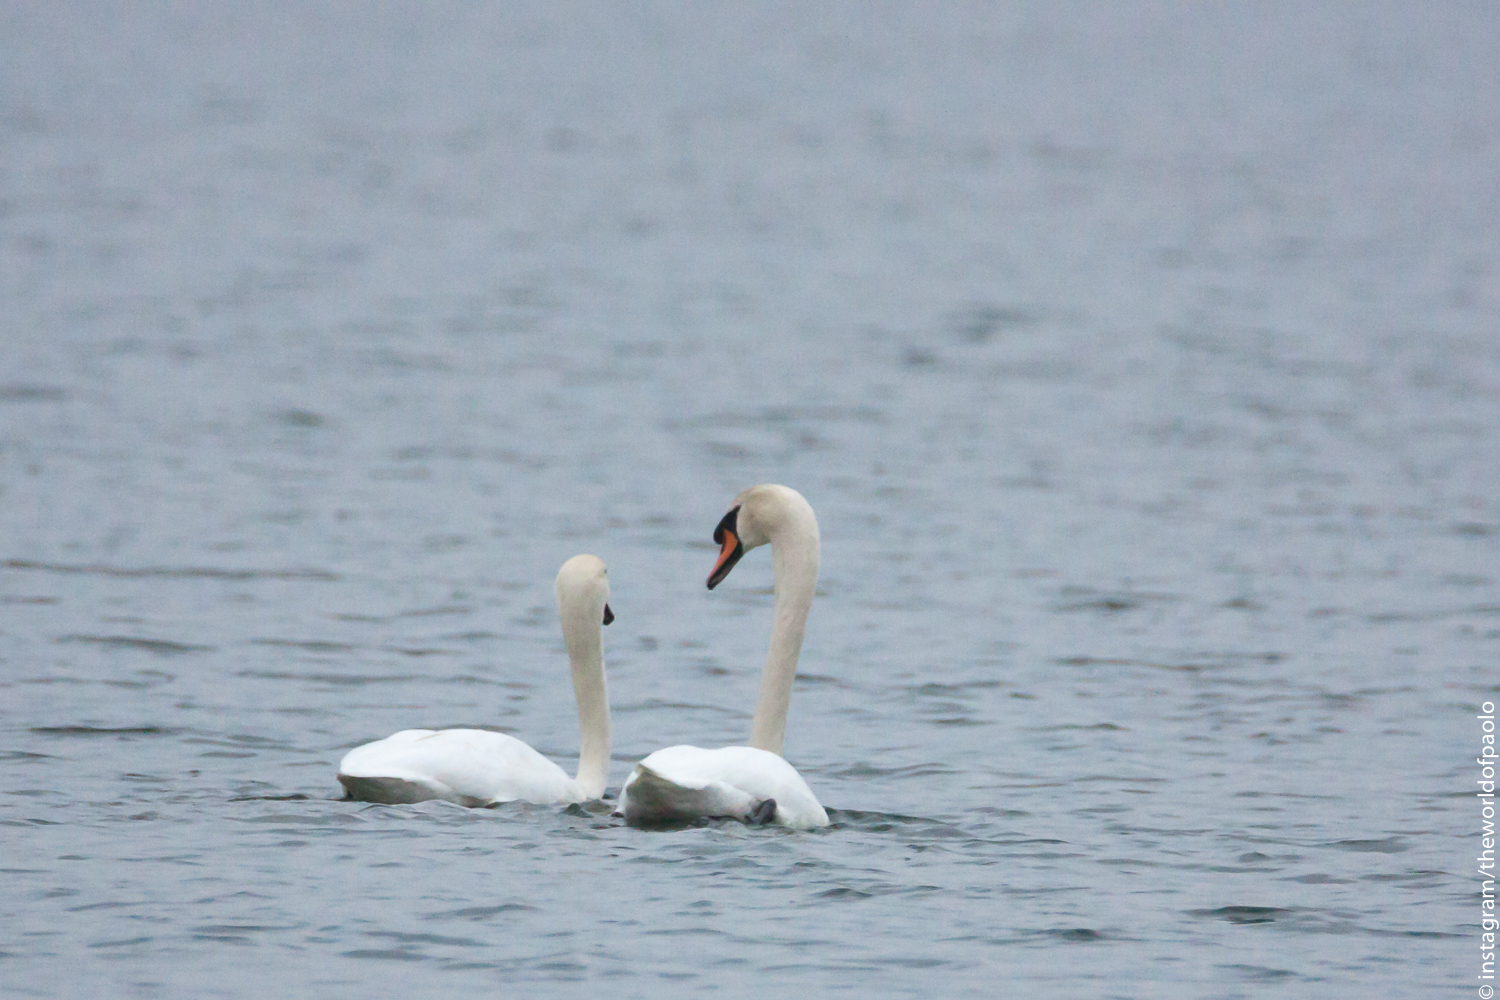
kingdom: Animalia
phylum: Chordata
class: Aves
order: Anseriformes
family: Anatidae
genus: Cygnus
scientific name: Cygnus olor
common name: Mute swan
